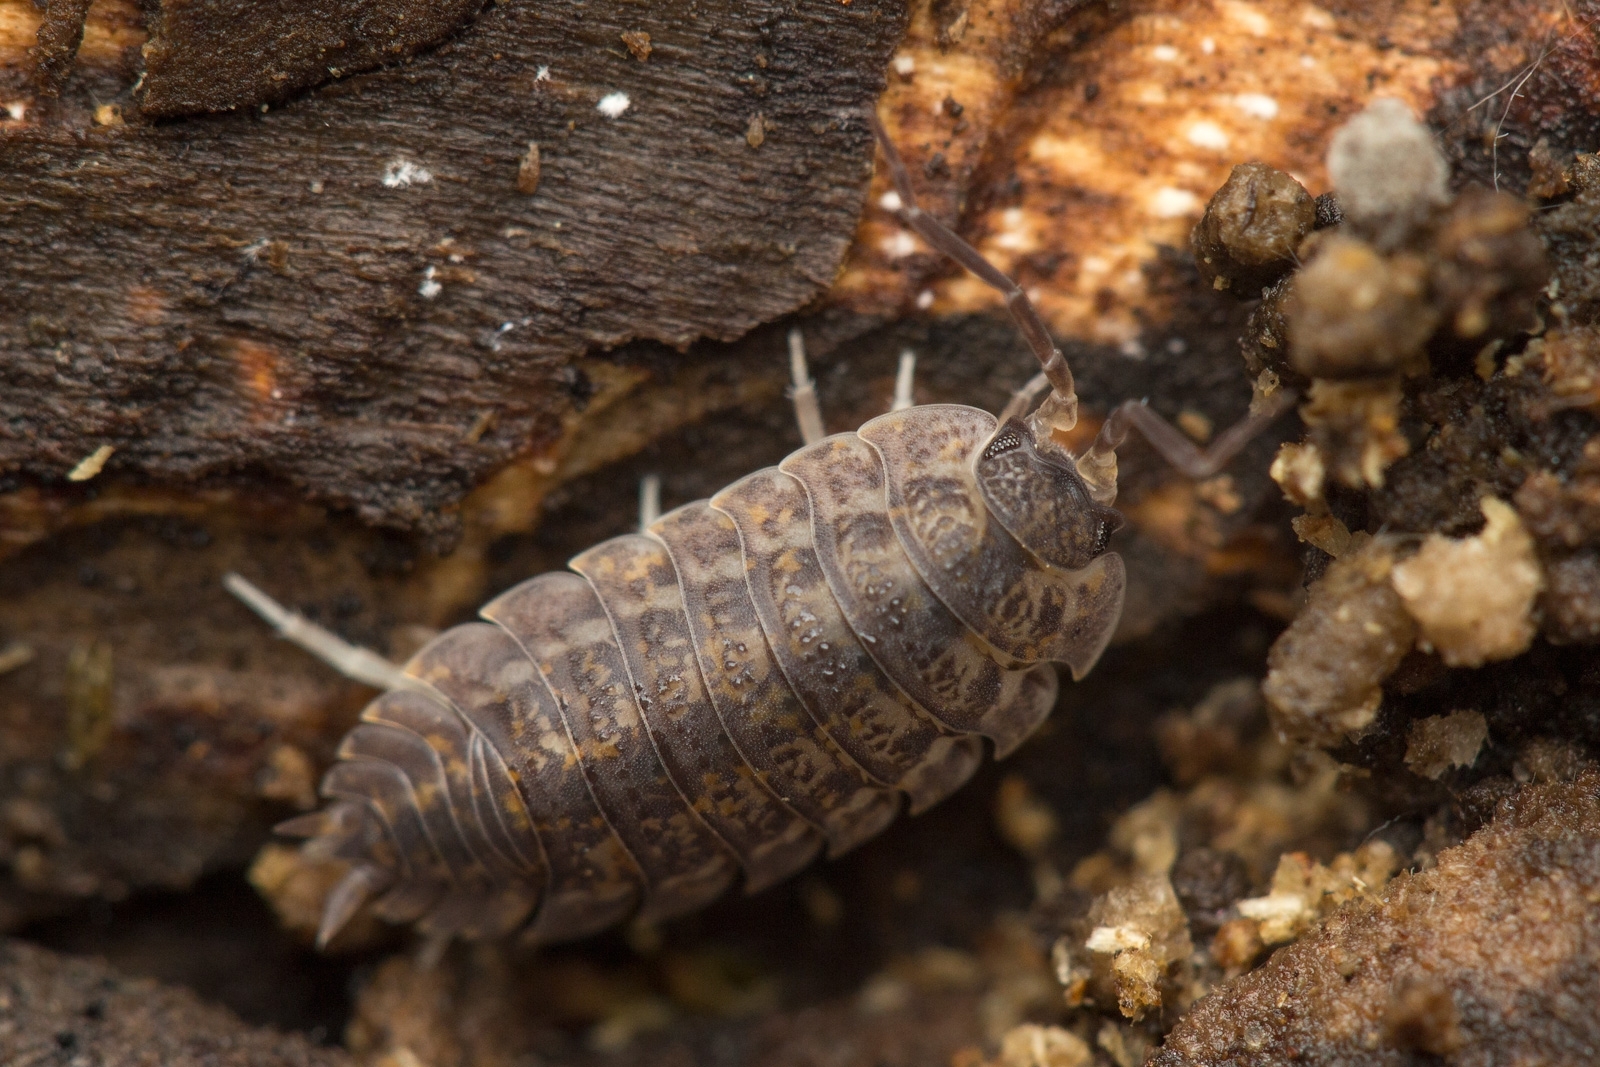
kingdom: Animalia
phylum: Arthropoda
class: Malacostraca
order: Isopoda
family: Trachelipodidae
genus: Trachelipus
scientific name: Trachelipus rathkii
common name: Isopod
